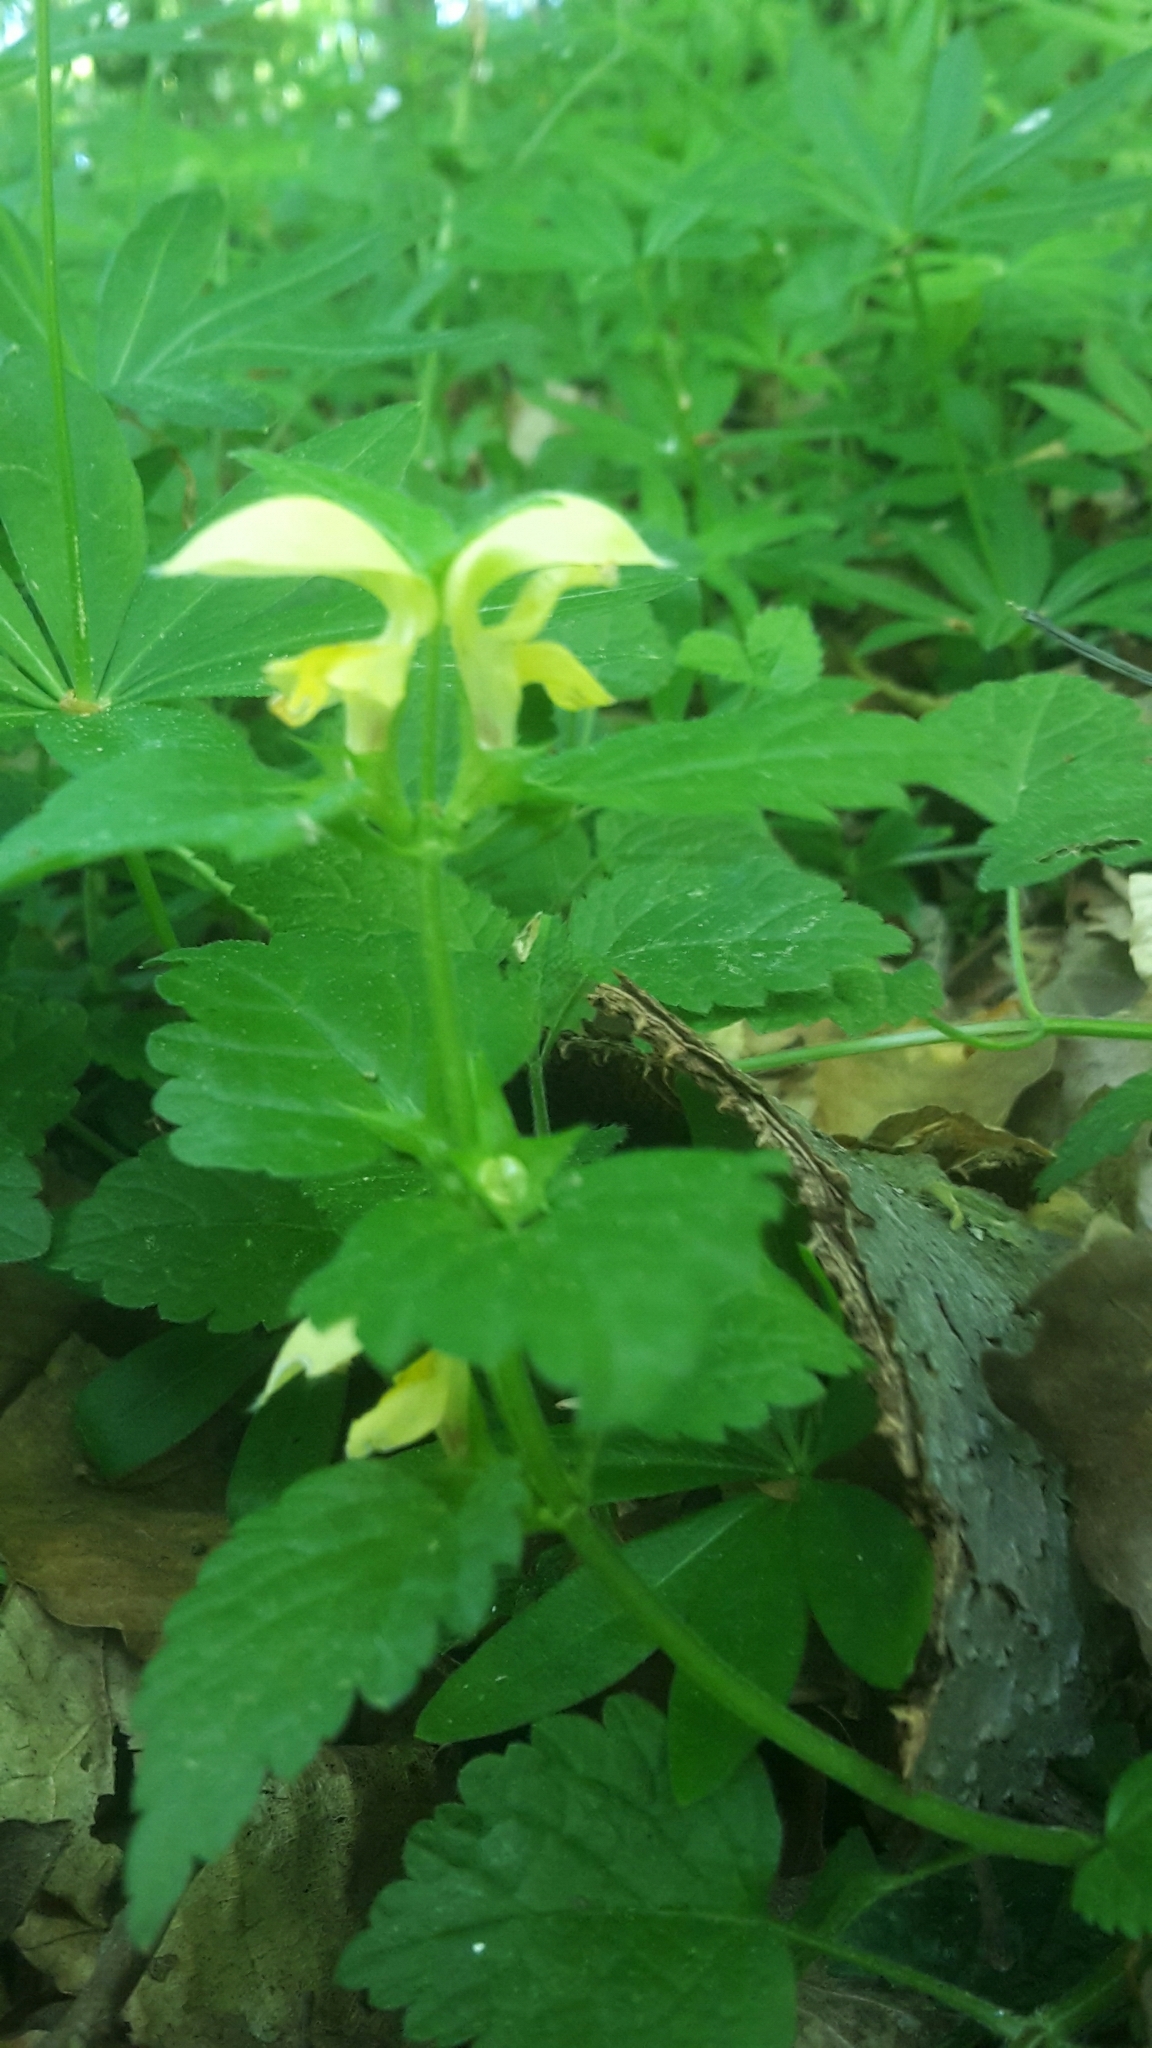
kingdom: Plantae
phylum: Tracheophyta
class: Magnoliopsida
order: Lamiales
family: Lamiaceae
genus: Lamium
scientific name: Lamium galeobdolon
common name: Yellow archangel
